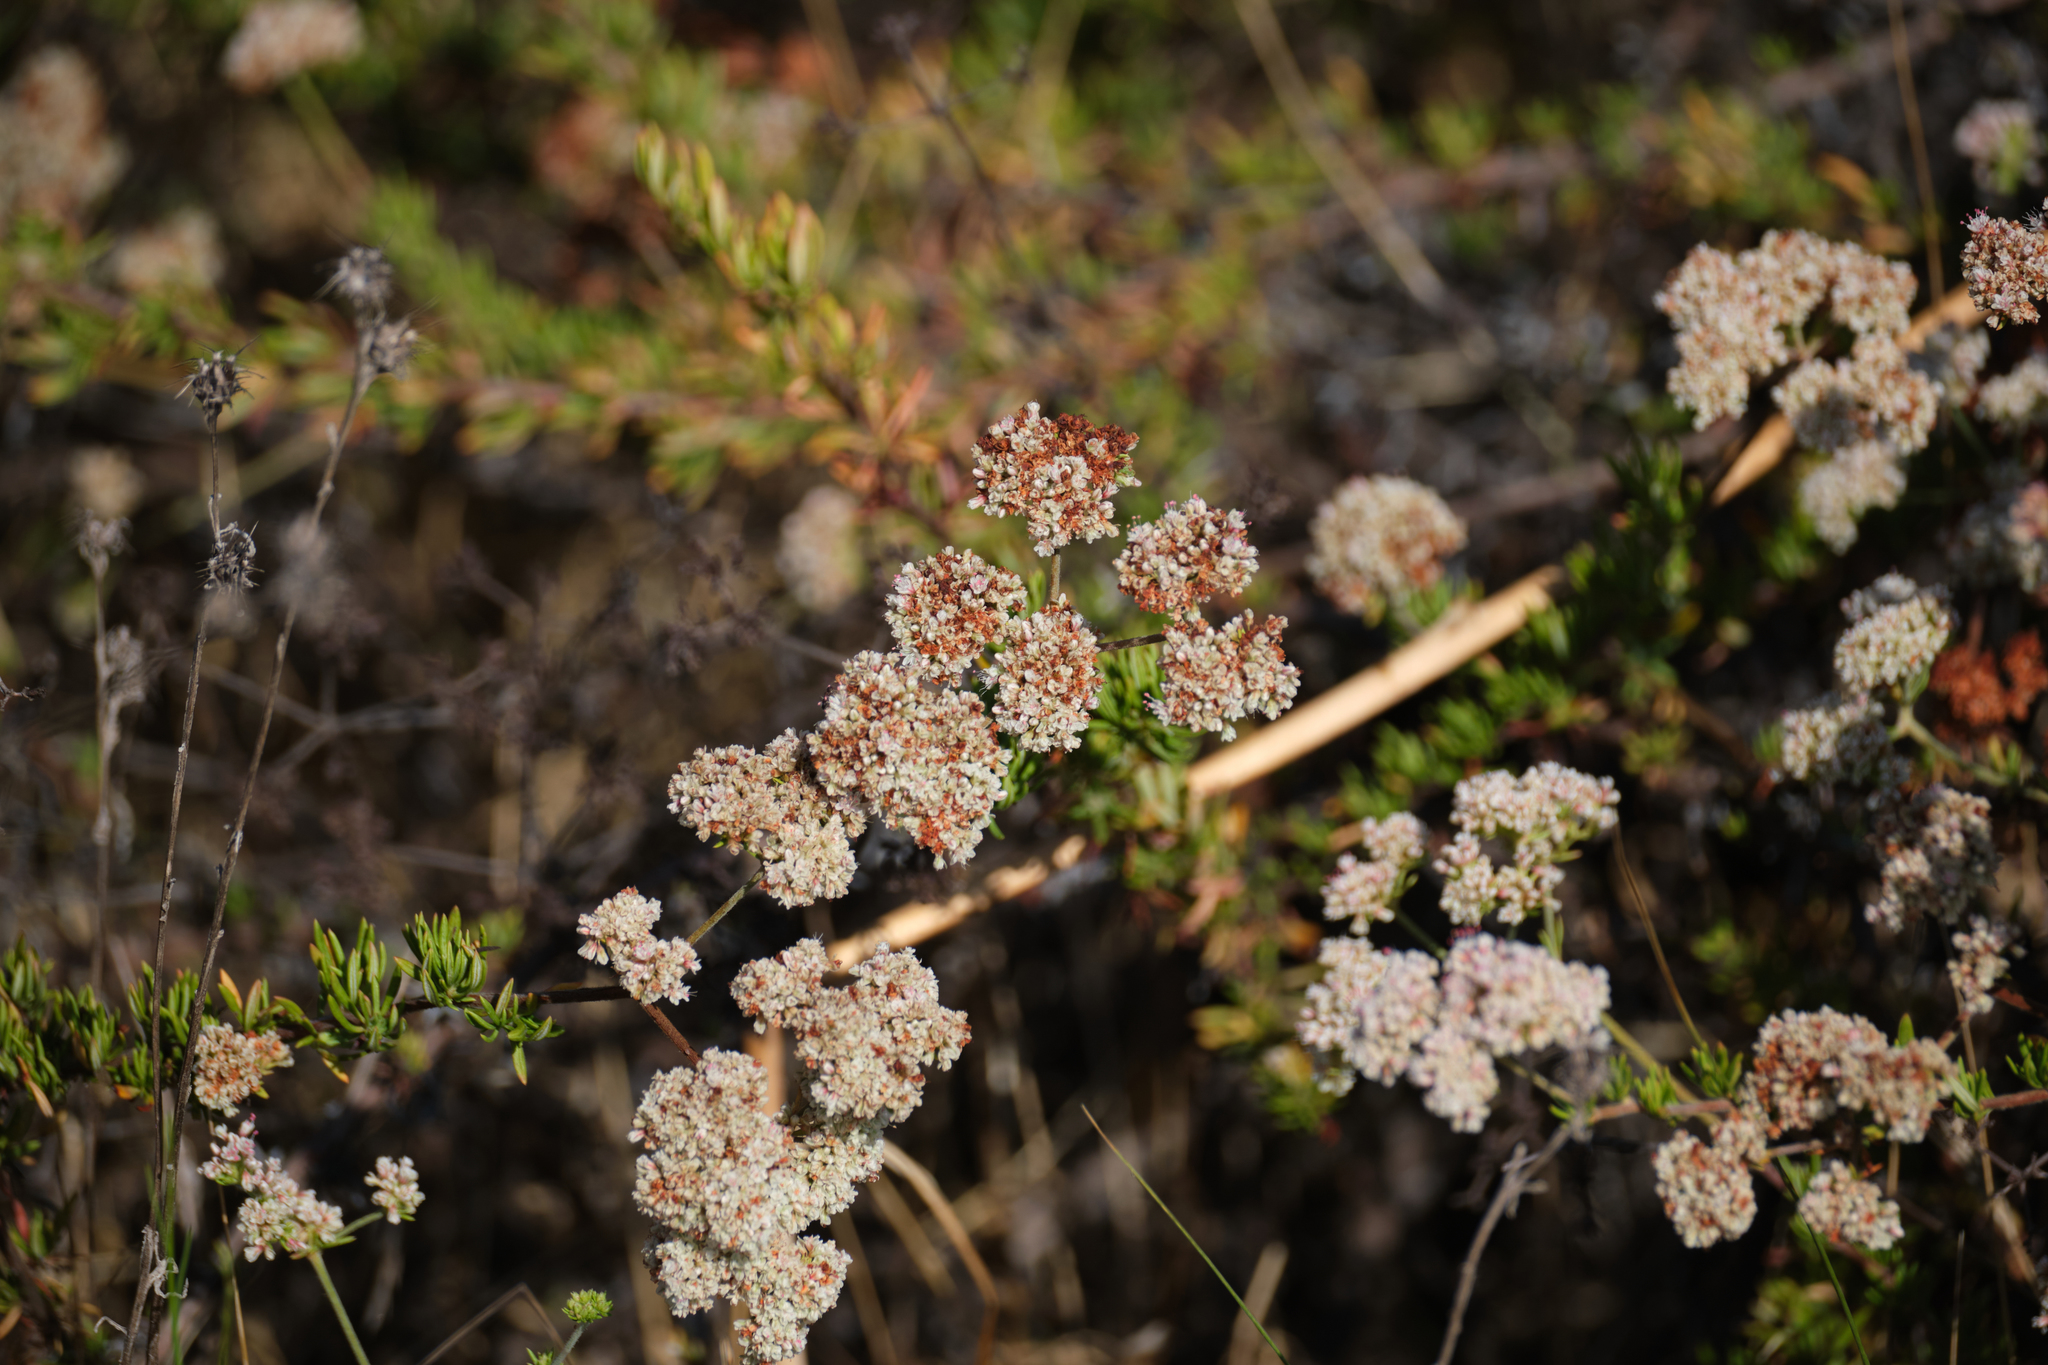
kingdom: Plantae
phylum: Tracheophyta
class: Magnoliopsida
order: Caryophyllales
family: Polygonaceae
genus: Eriogonum
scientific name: Eriogonum fasciculatum
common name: California wild buckwheat
